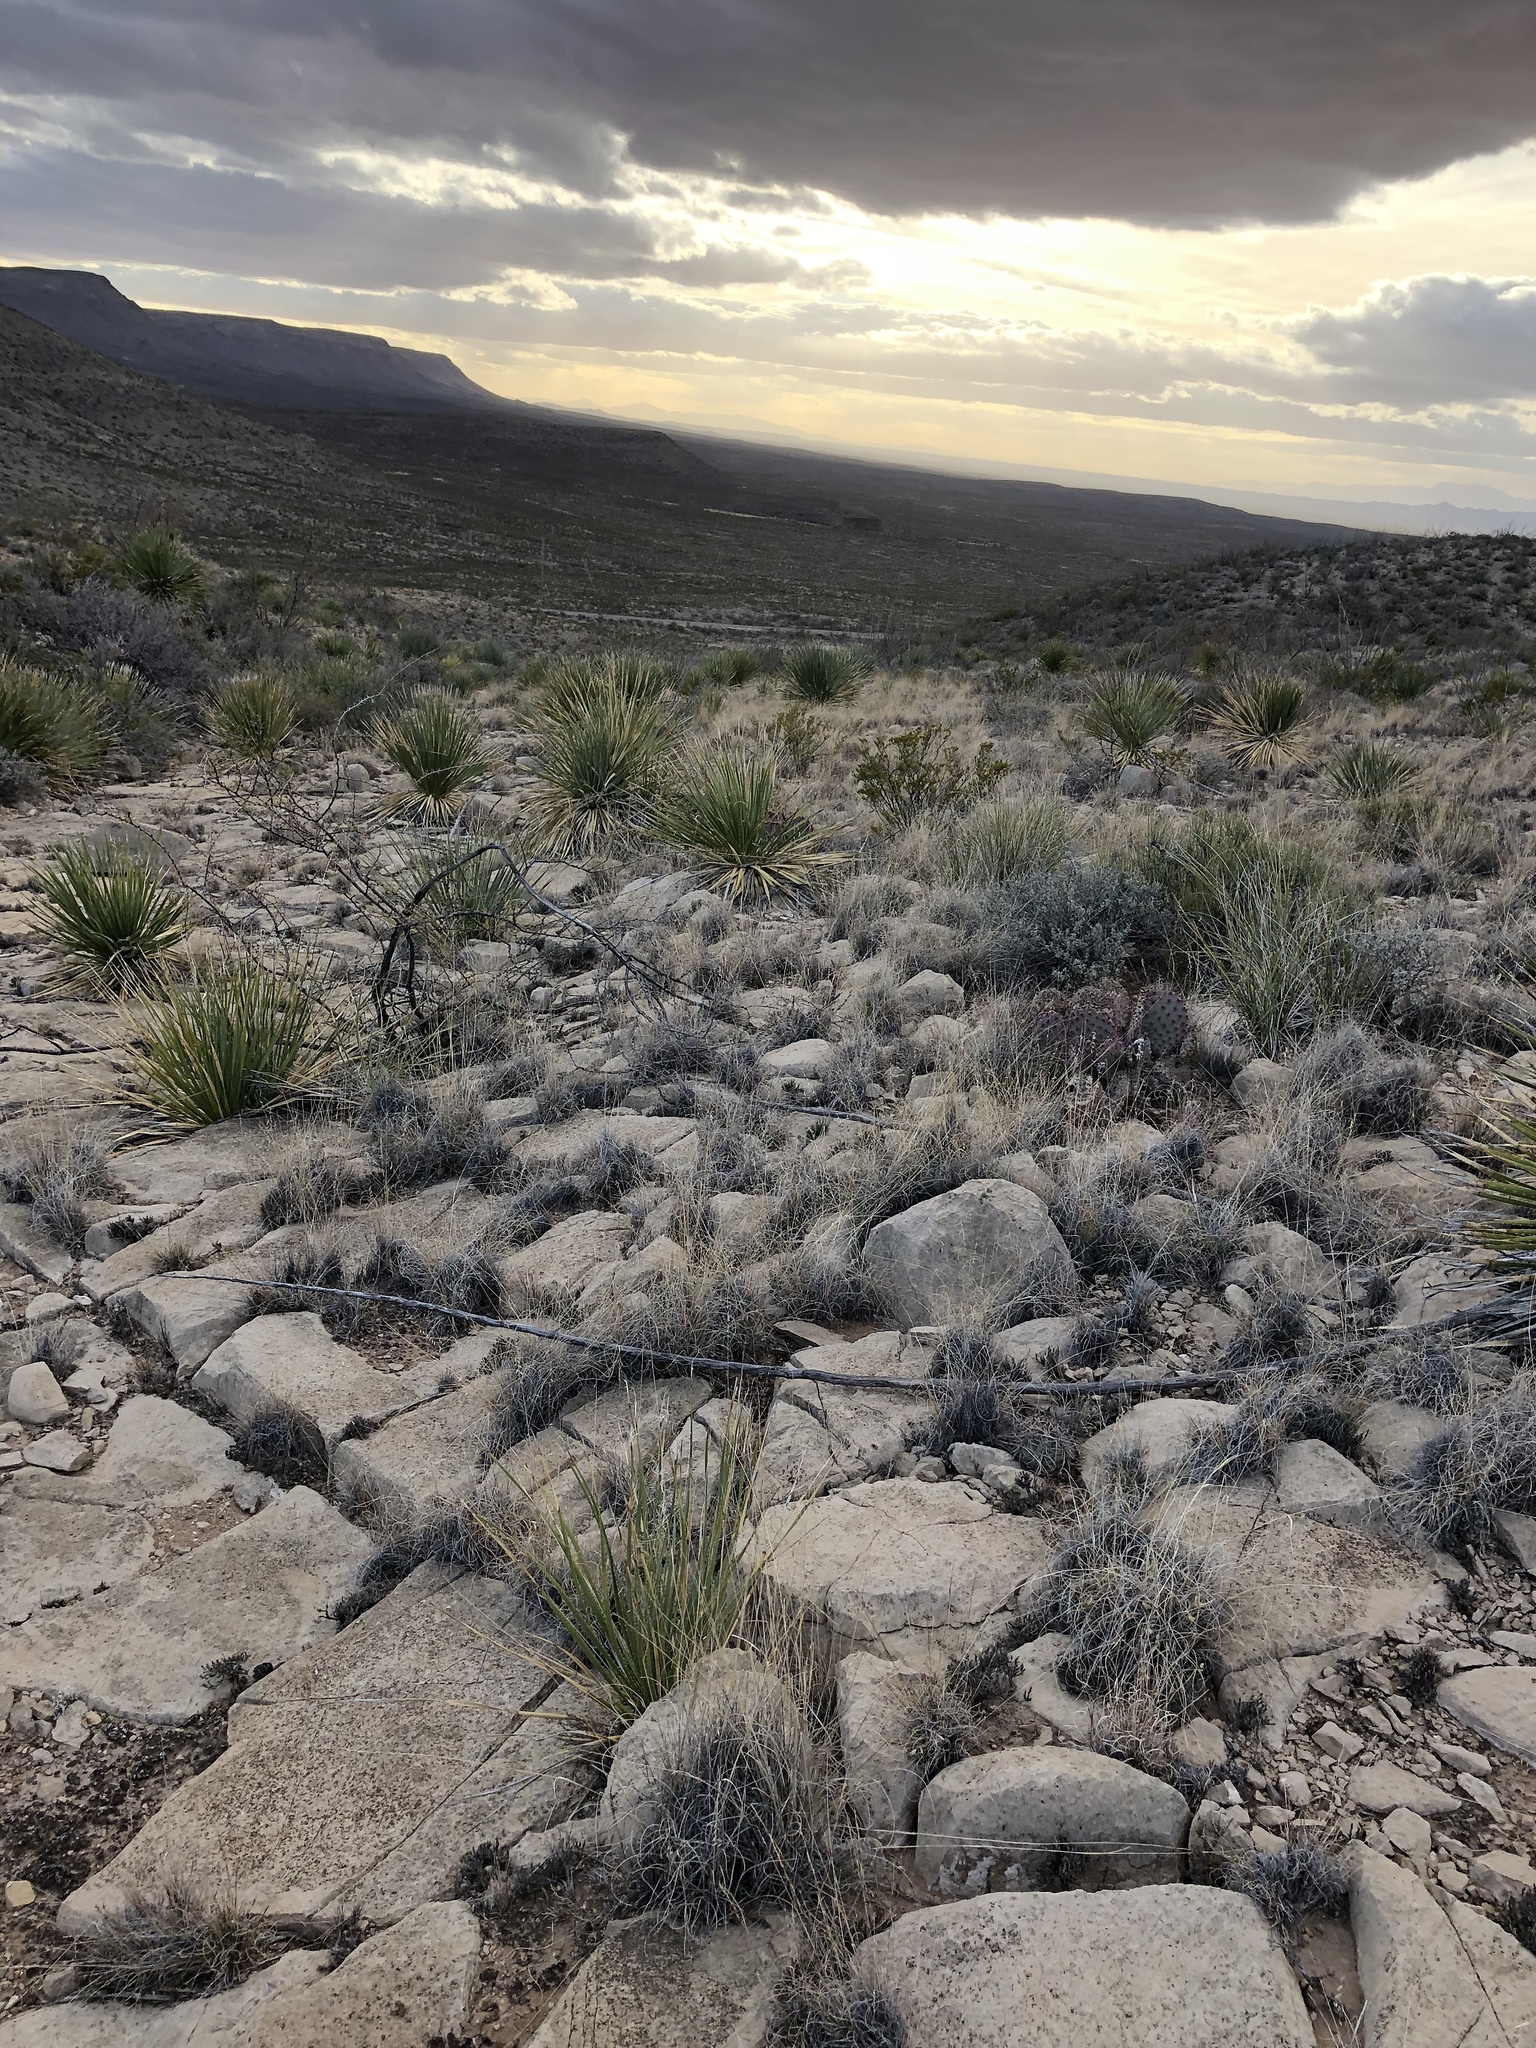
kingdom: Animalia
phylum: Chordata
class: Mammalia
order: Artiodactyla
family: Bovidae
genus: Oryx
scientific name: Oryx gazella
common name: Gemsbok
